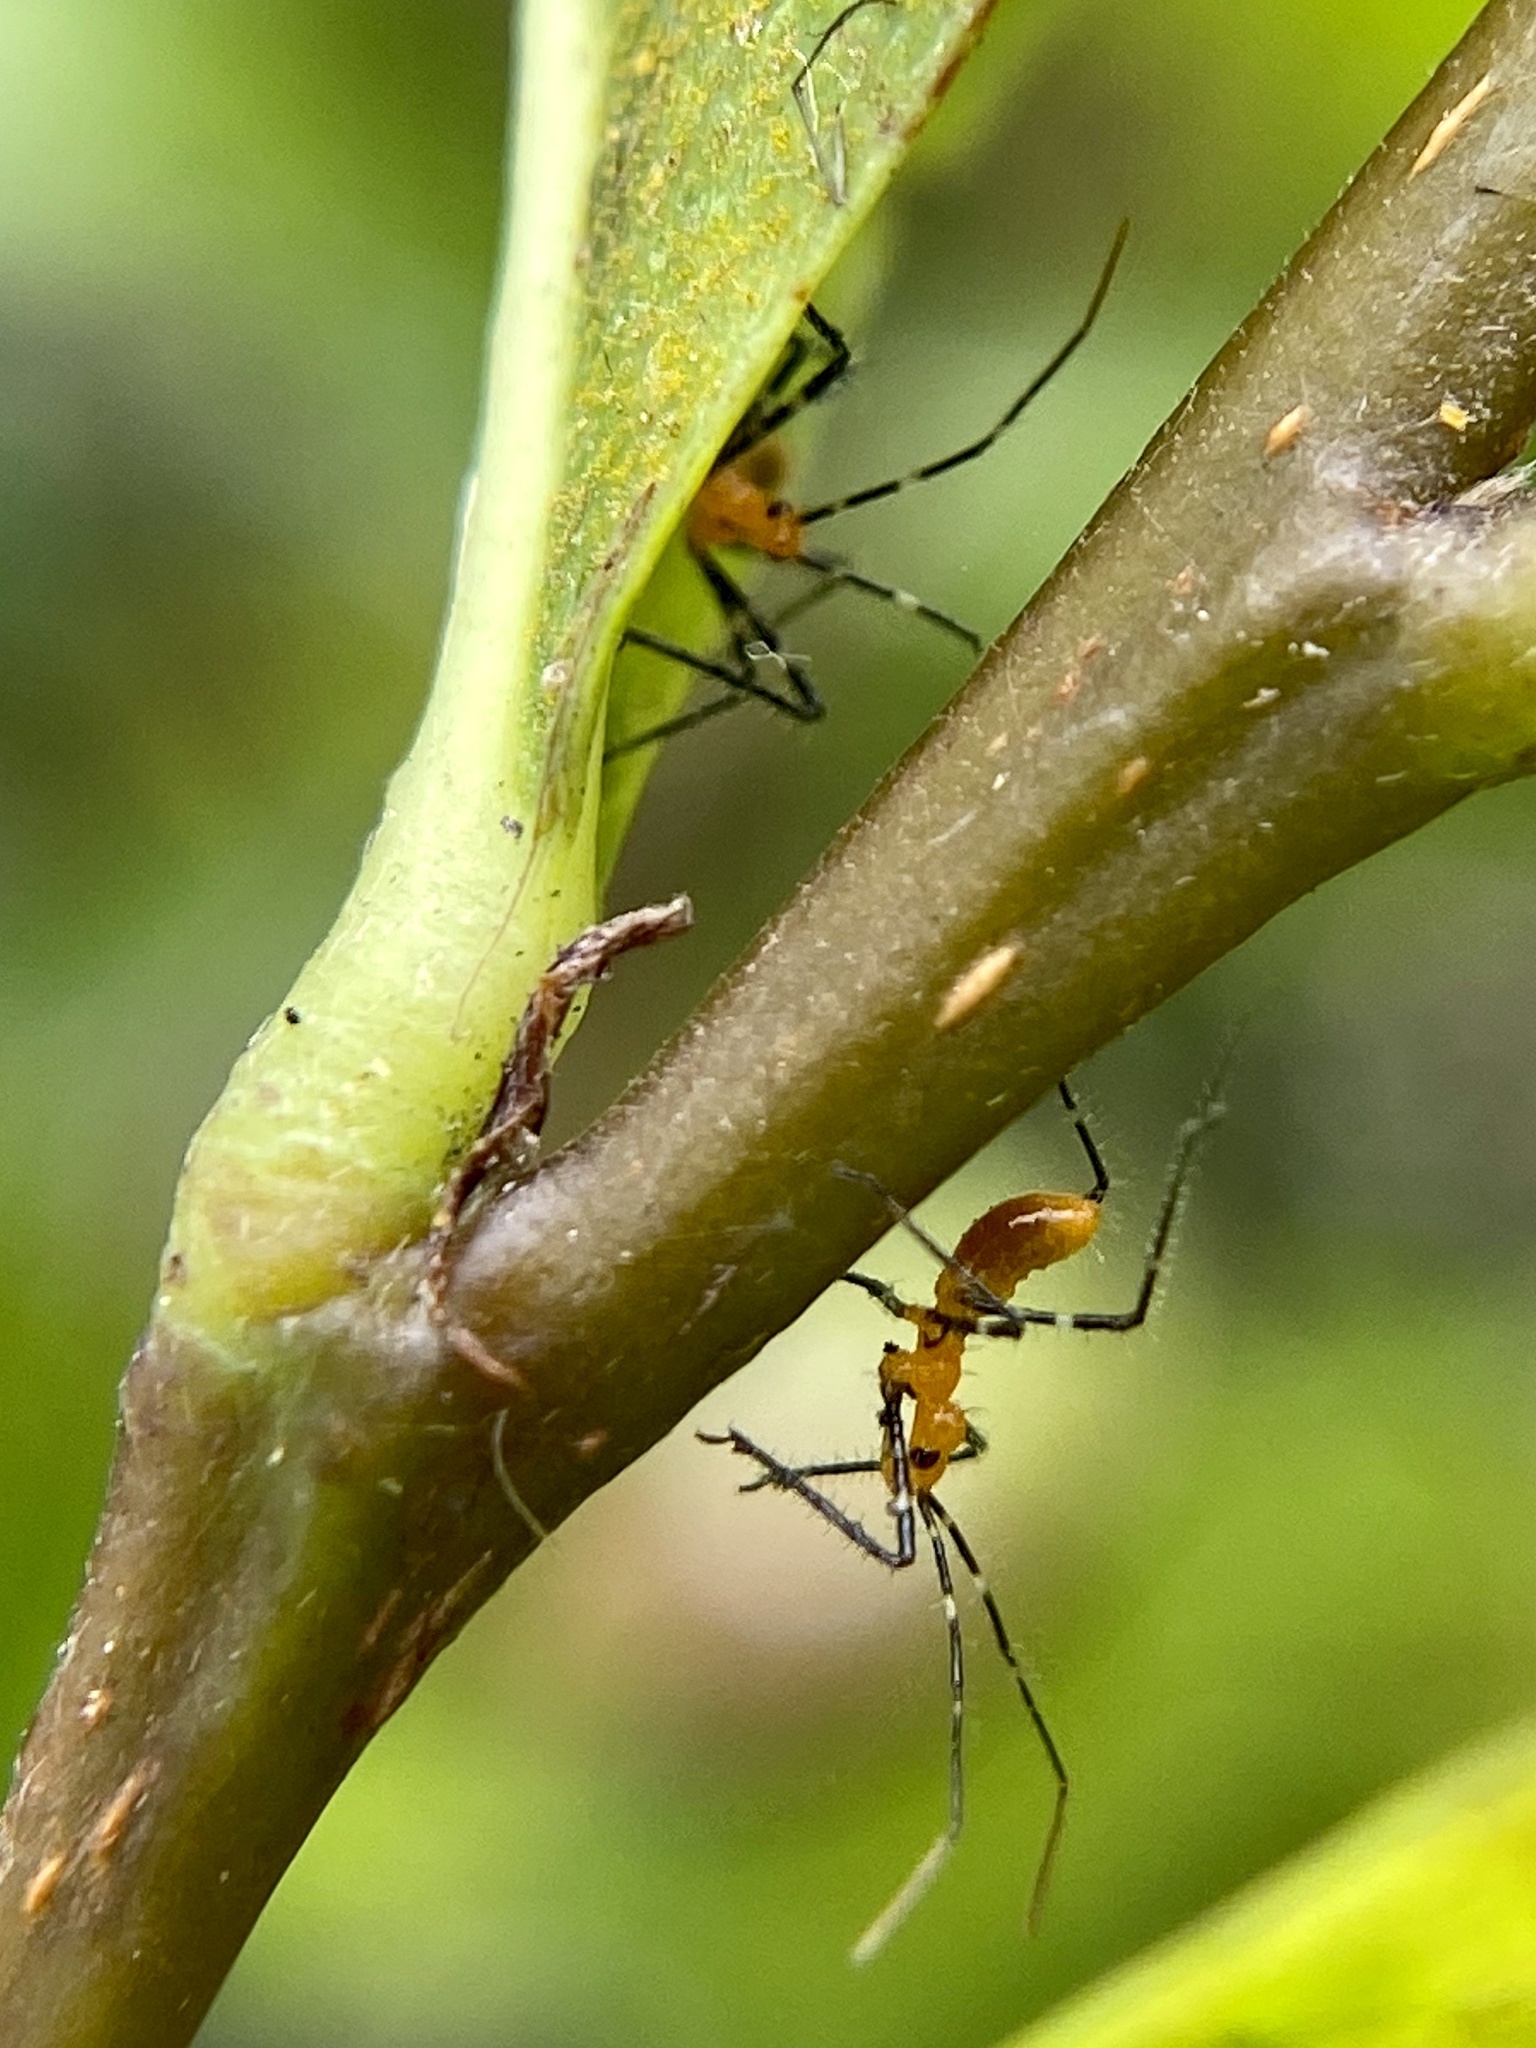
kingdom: Animalia
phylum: Arthropoda
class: Insecta
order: Hemiptera
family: Reduviidae
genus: Zelus
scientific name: Zelus longipes
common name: Milkweed assassin bug
